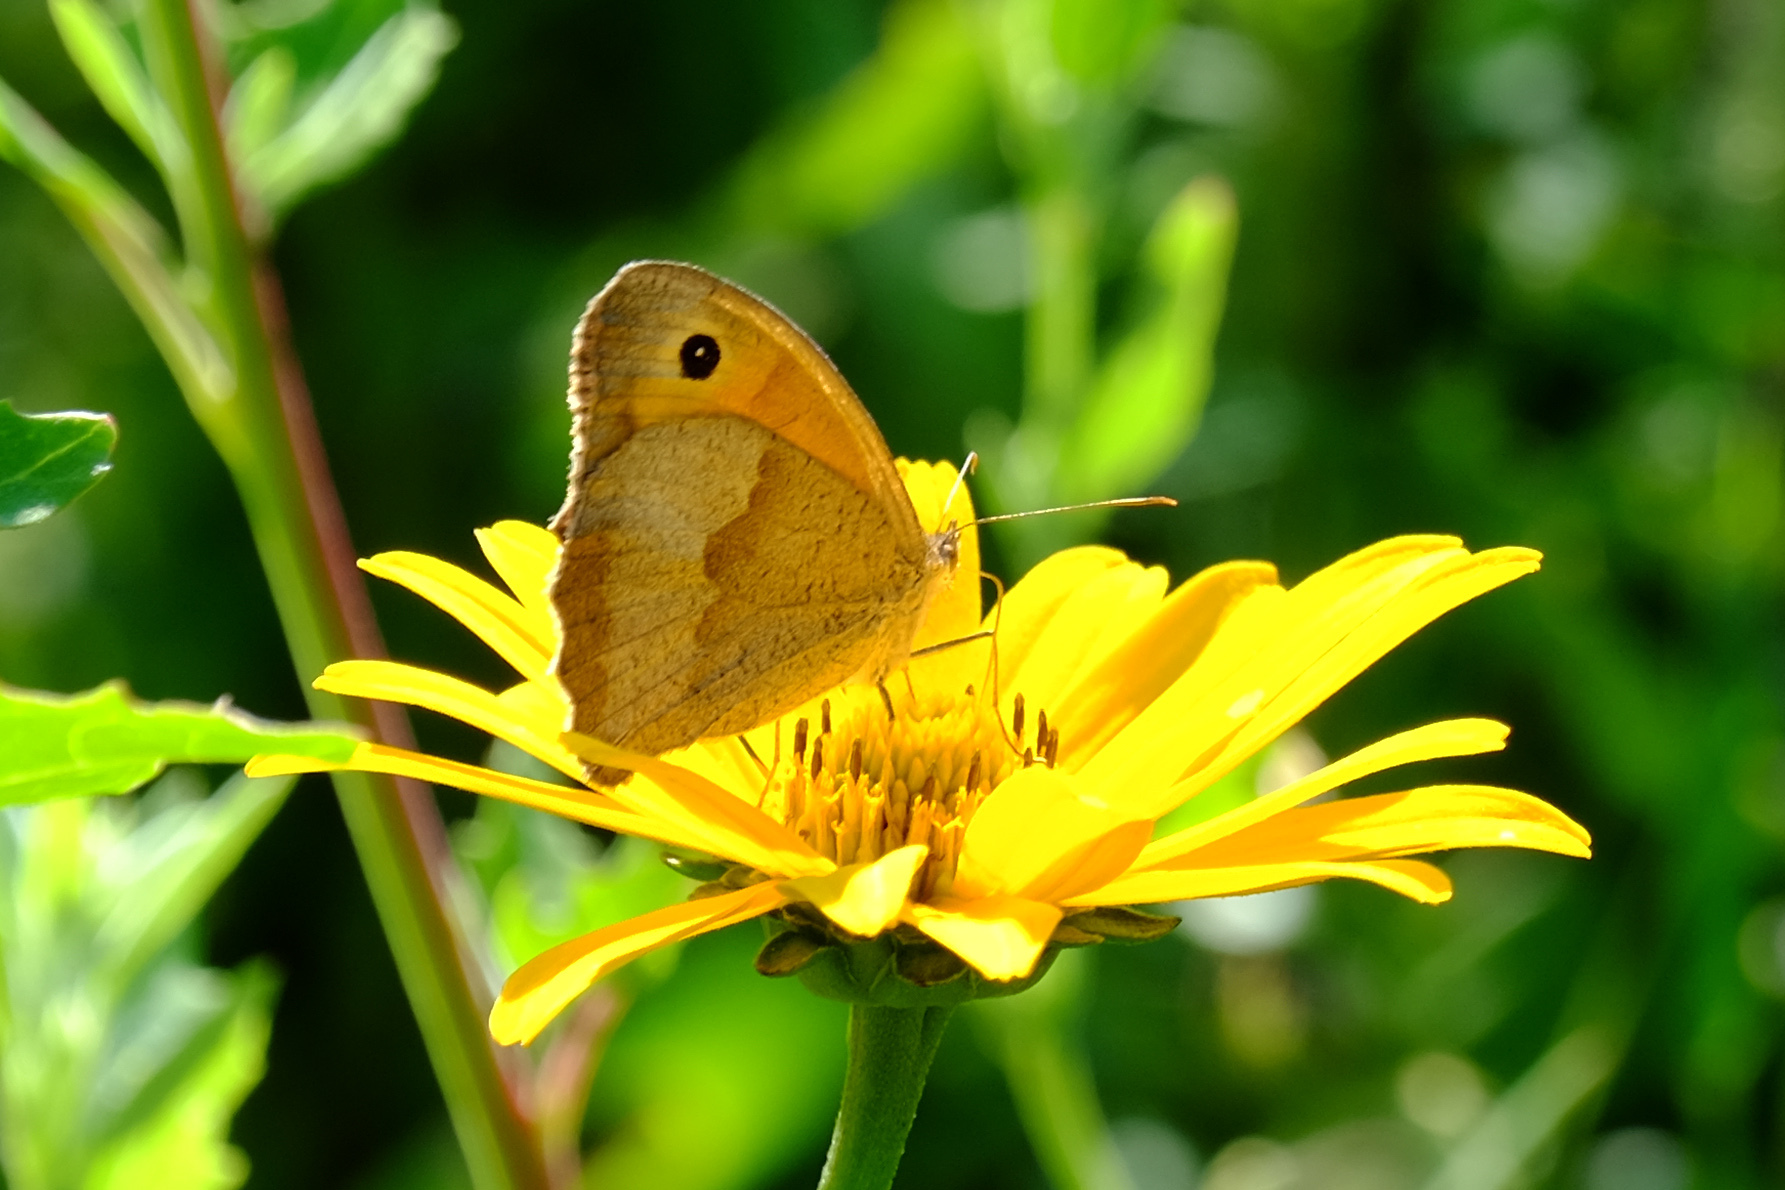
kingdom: Animalia
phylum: Arthropoda
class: Insecta
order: Lepidoptera
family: Nymphalidae
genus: Maniola
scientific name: Maniola jurtina
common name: Meadow brown
